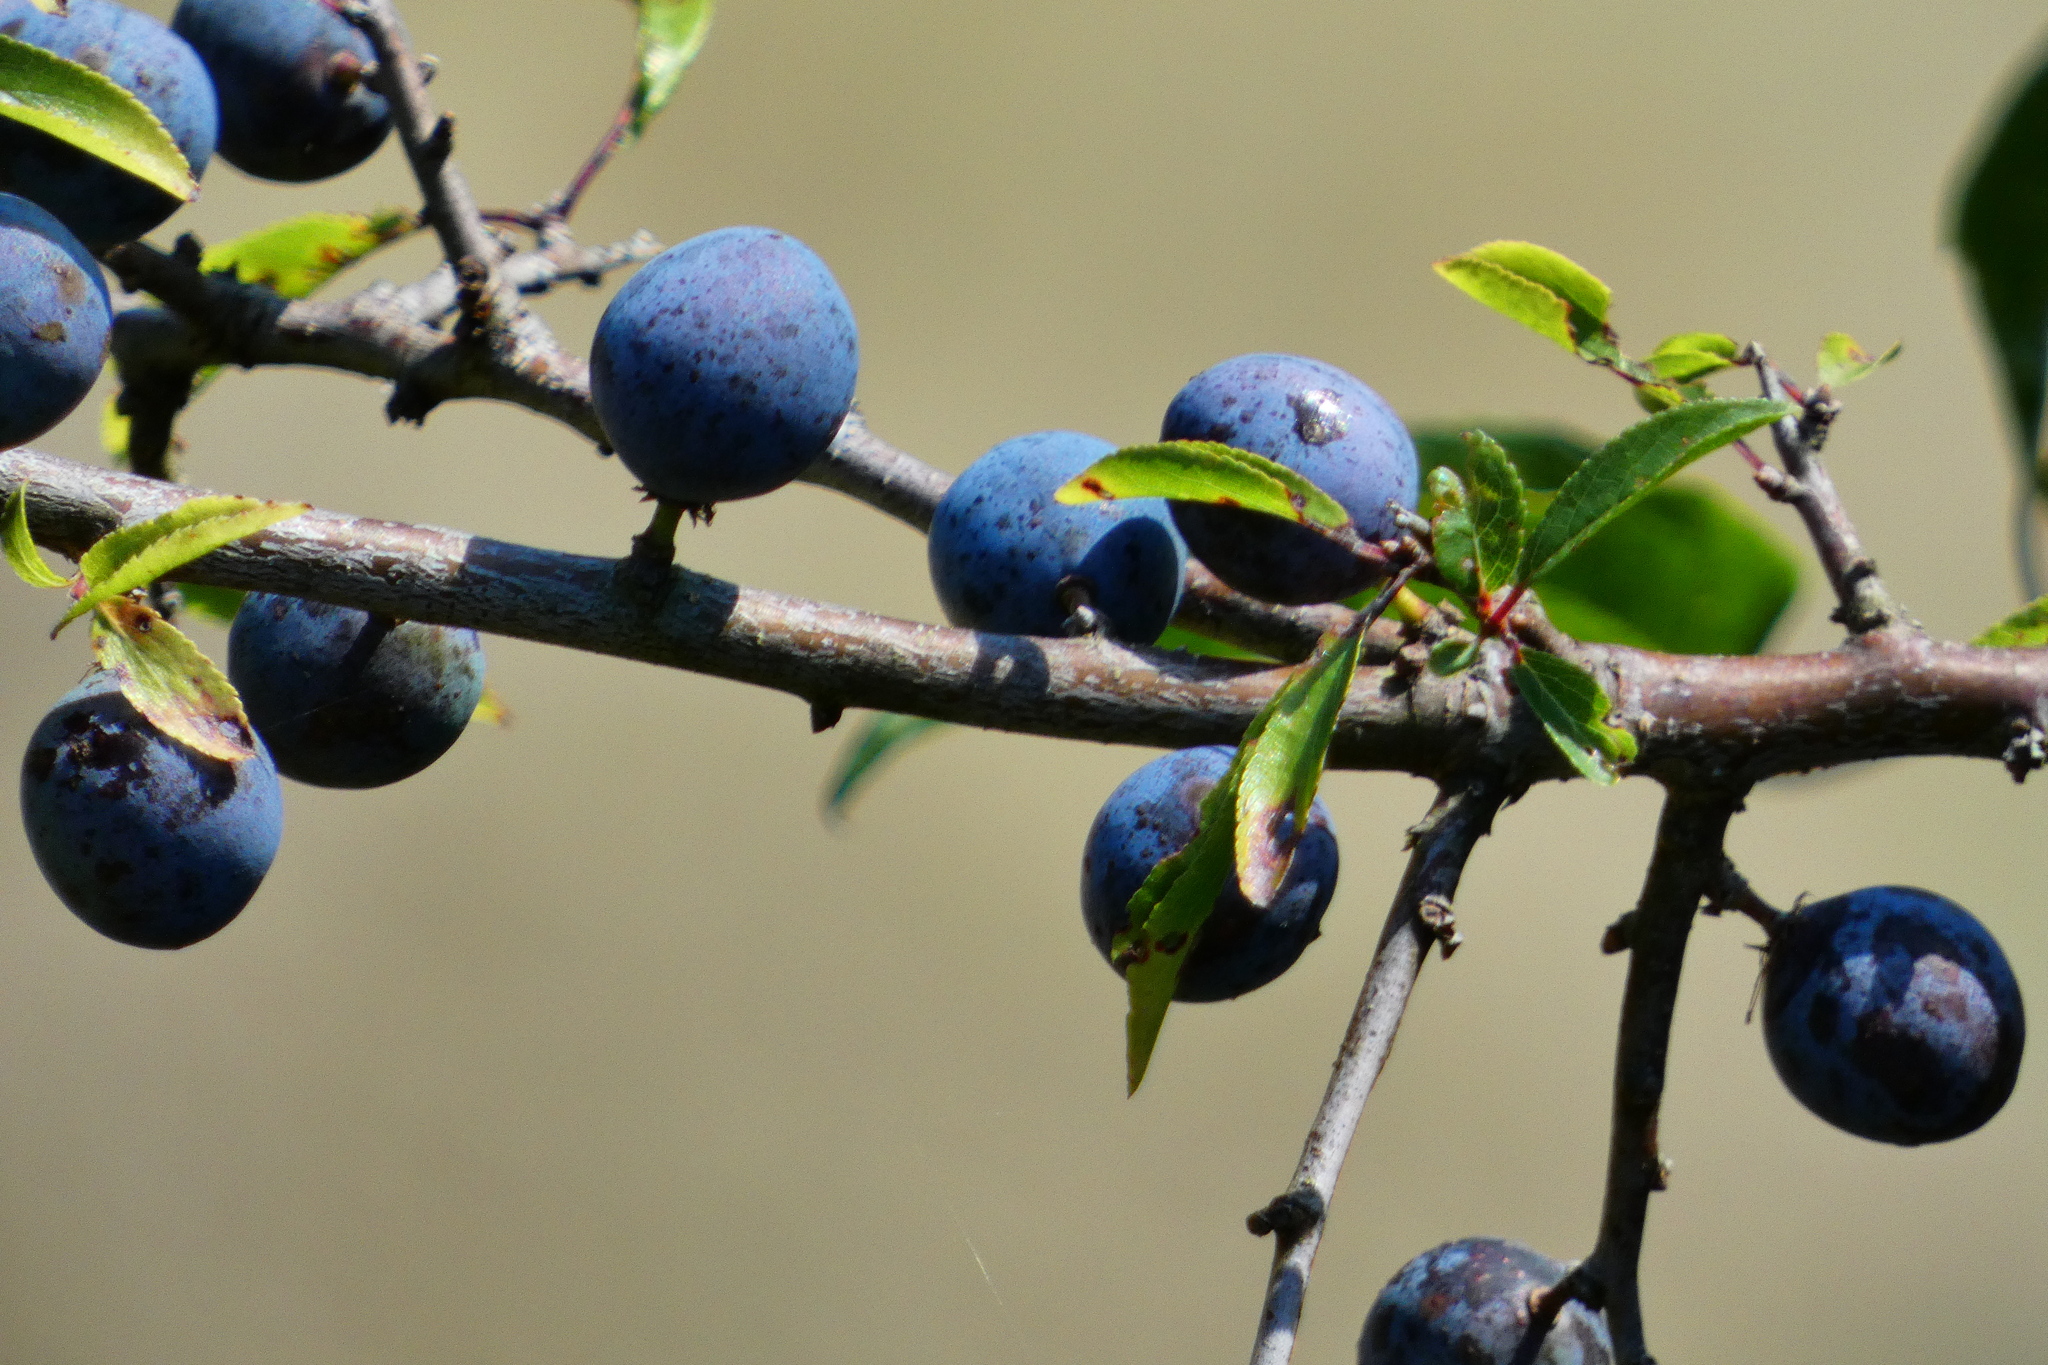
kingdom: Plantae
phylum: Tracheophyta
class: Magnoliopsida
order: Rosales
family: Rosaceae
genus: Prunus
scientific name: Prunus spinosa
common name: Blackthorn
